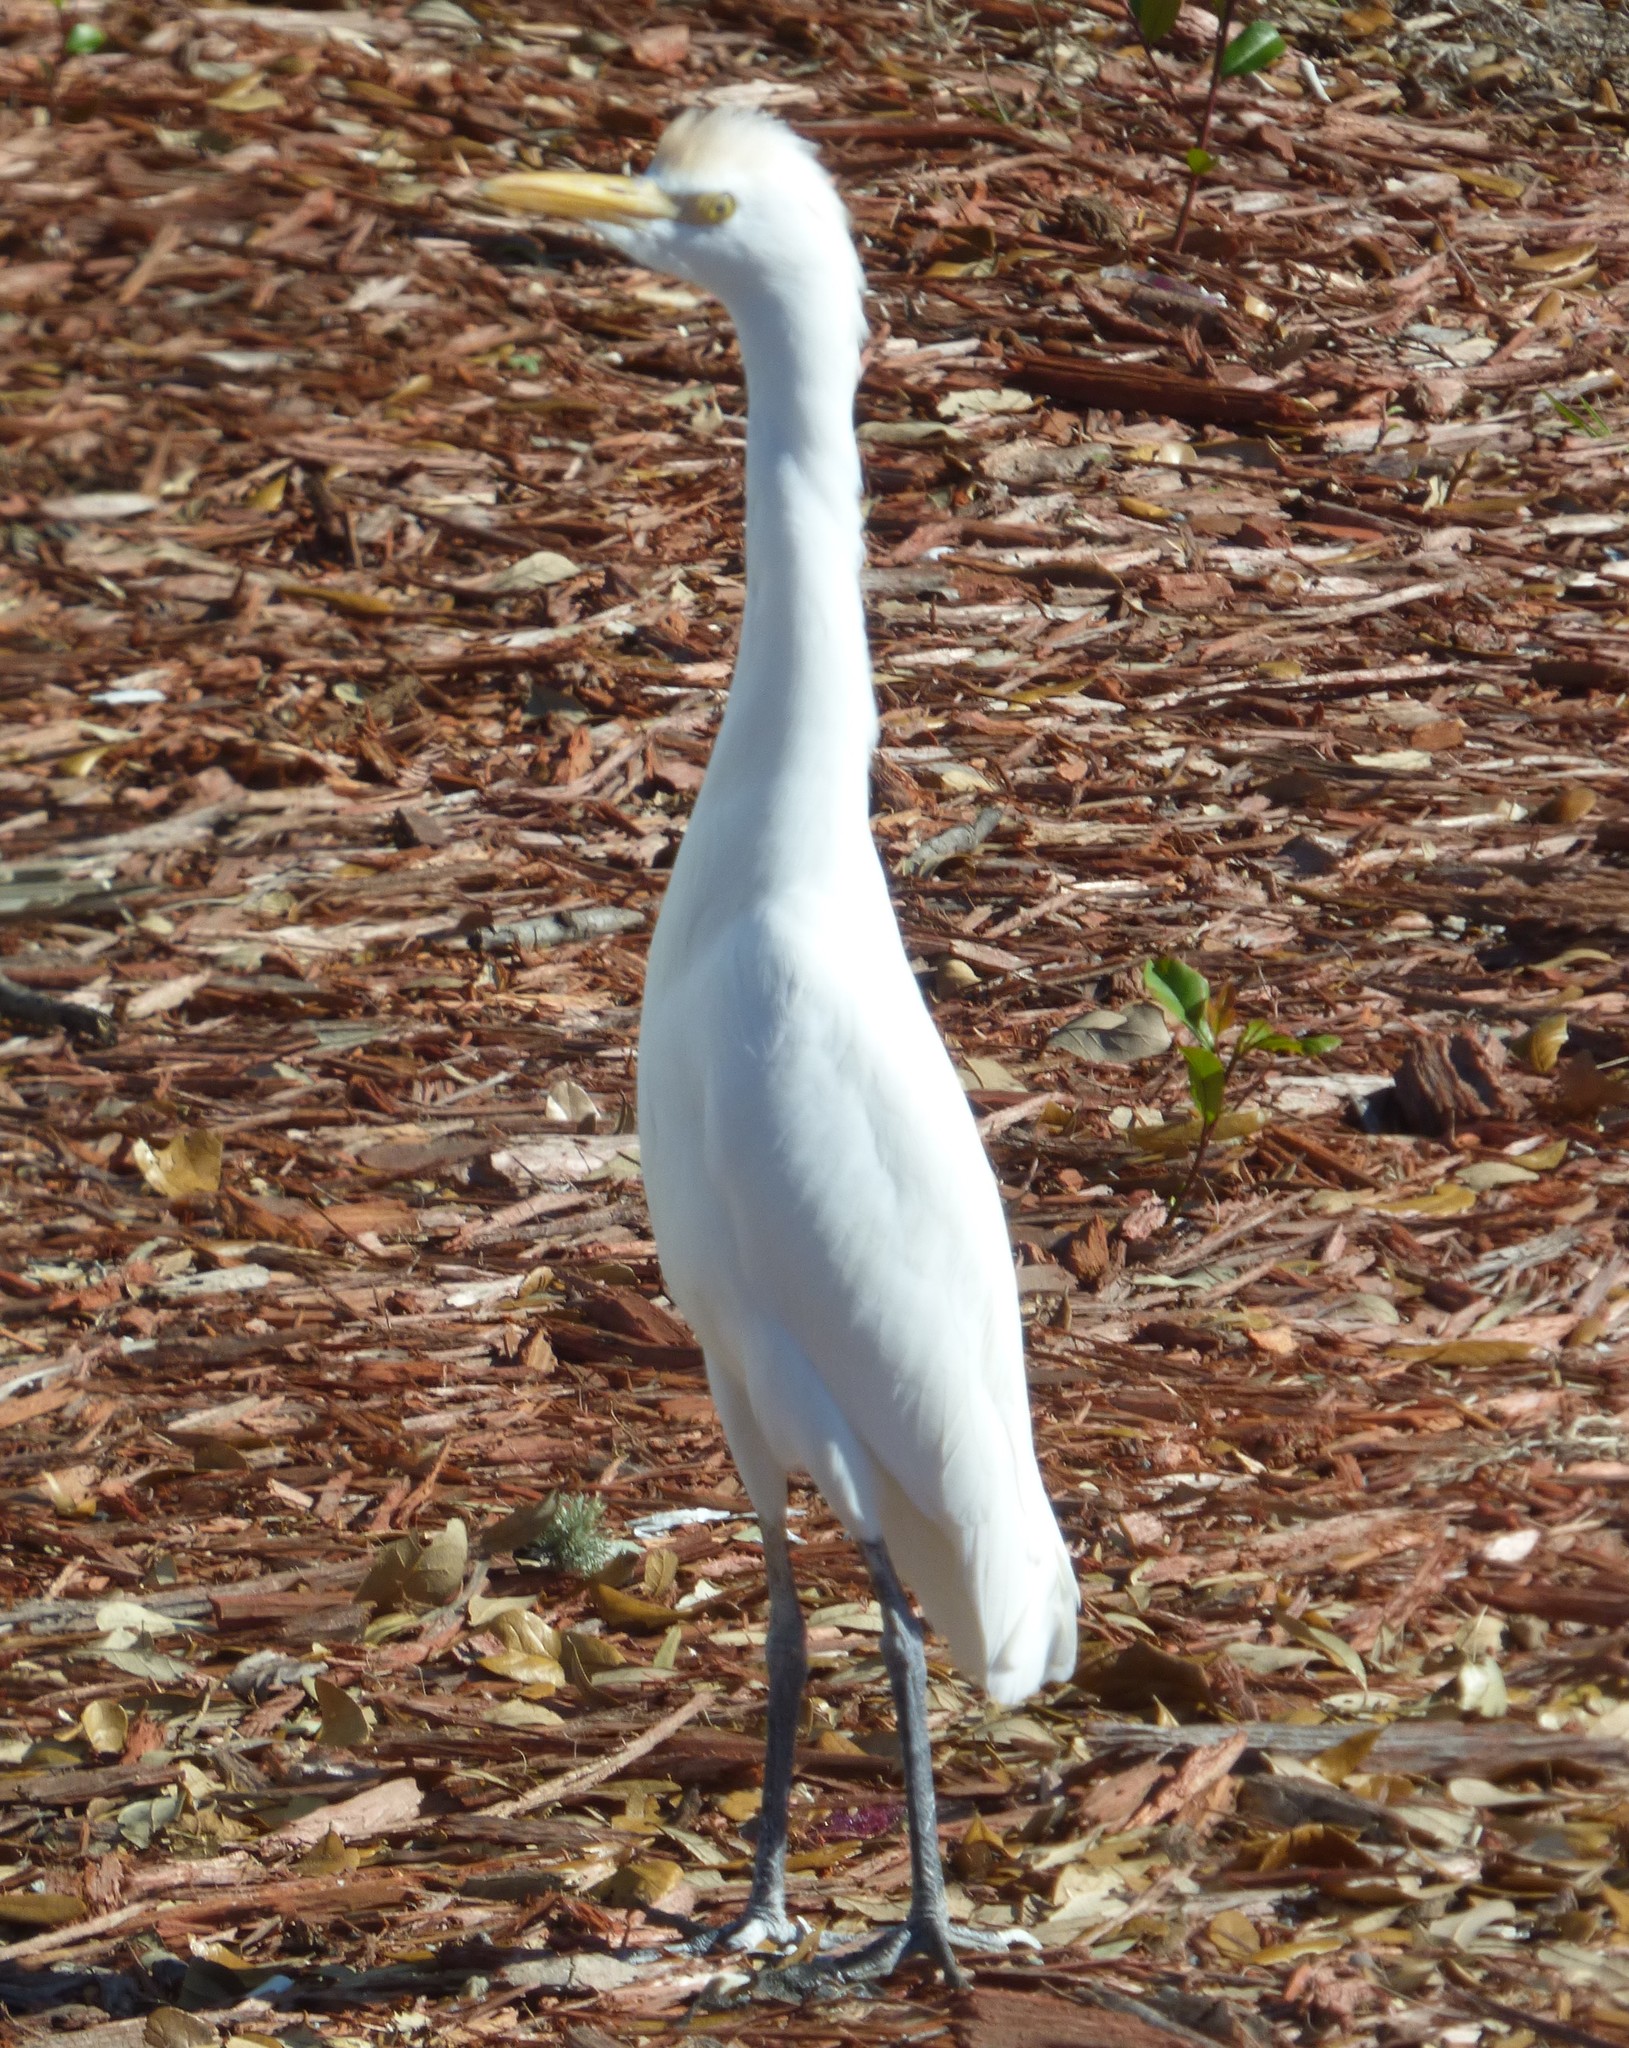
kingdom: Animalia
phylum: Chordata
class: Aves
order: Pelecaniformes
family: Ardeidae
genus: Bubulcus
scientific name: Bubulcus ibis
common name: Cattle egret
